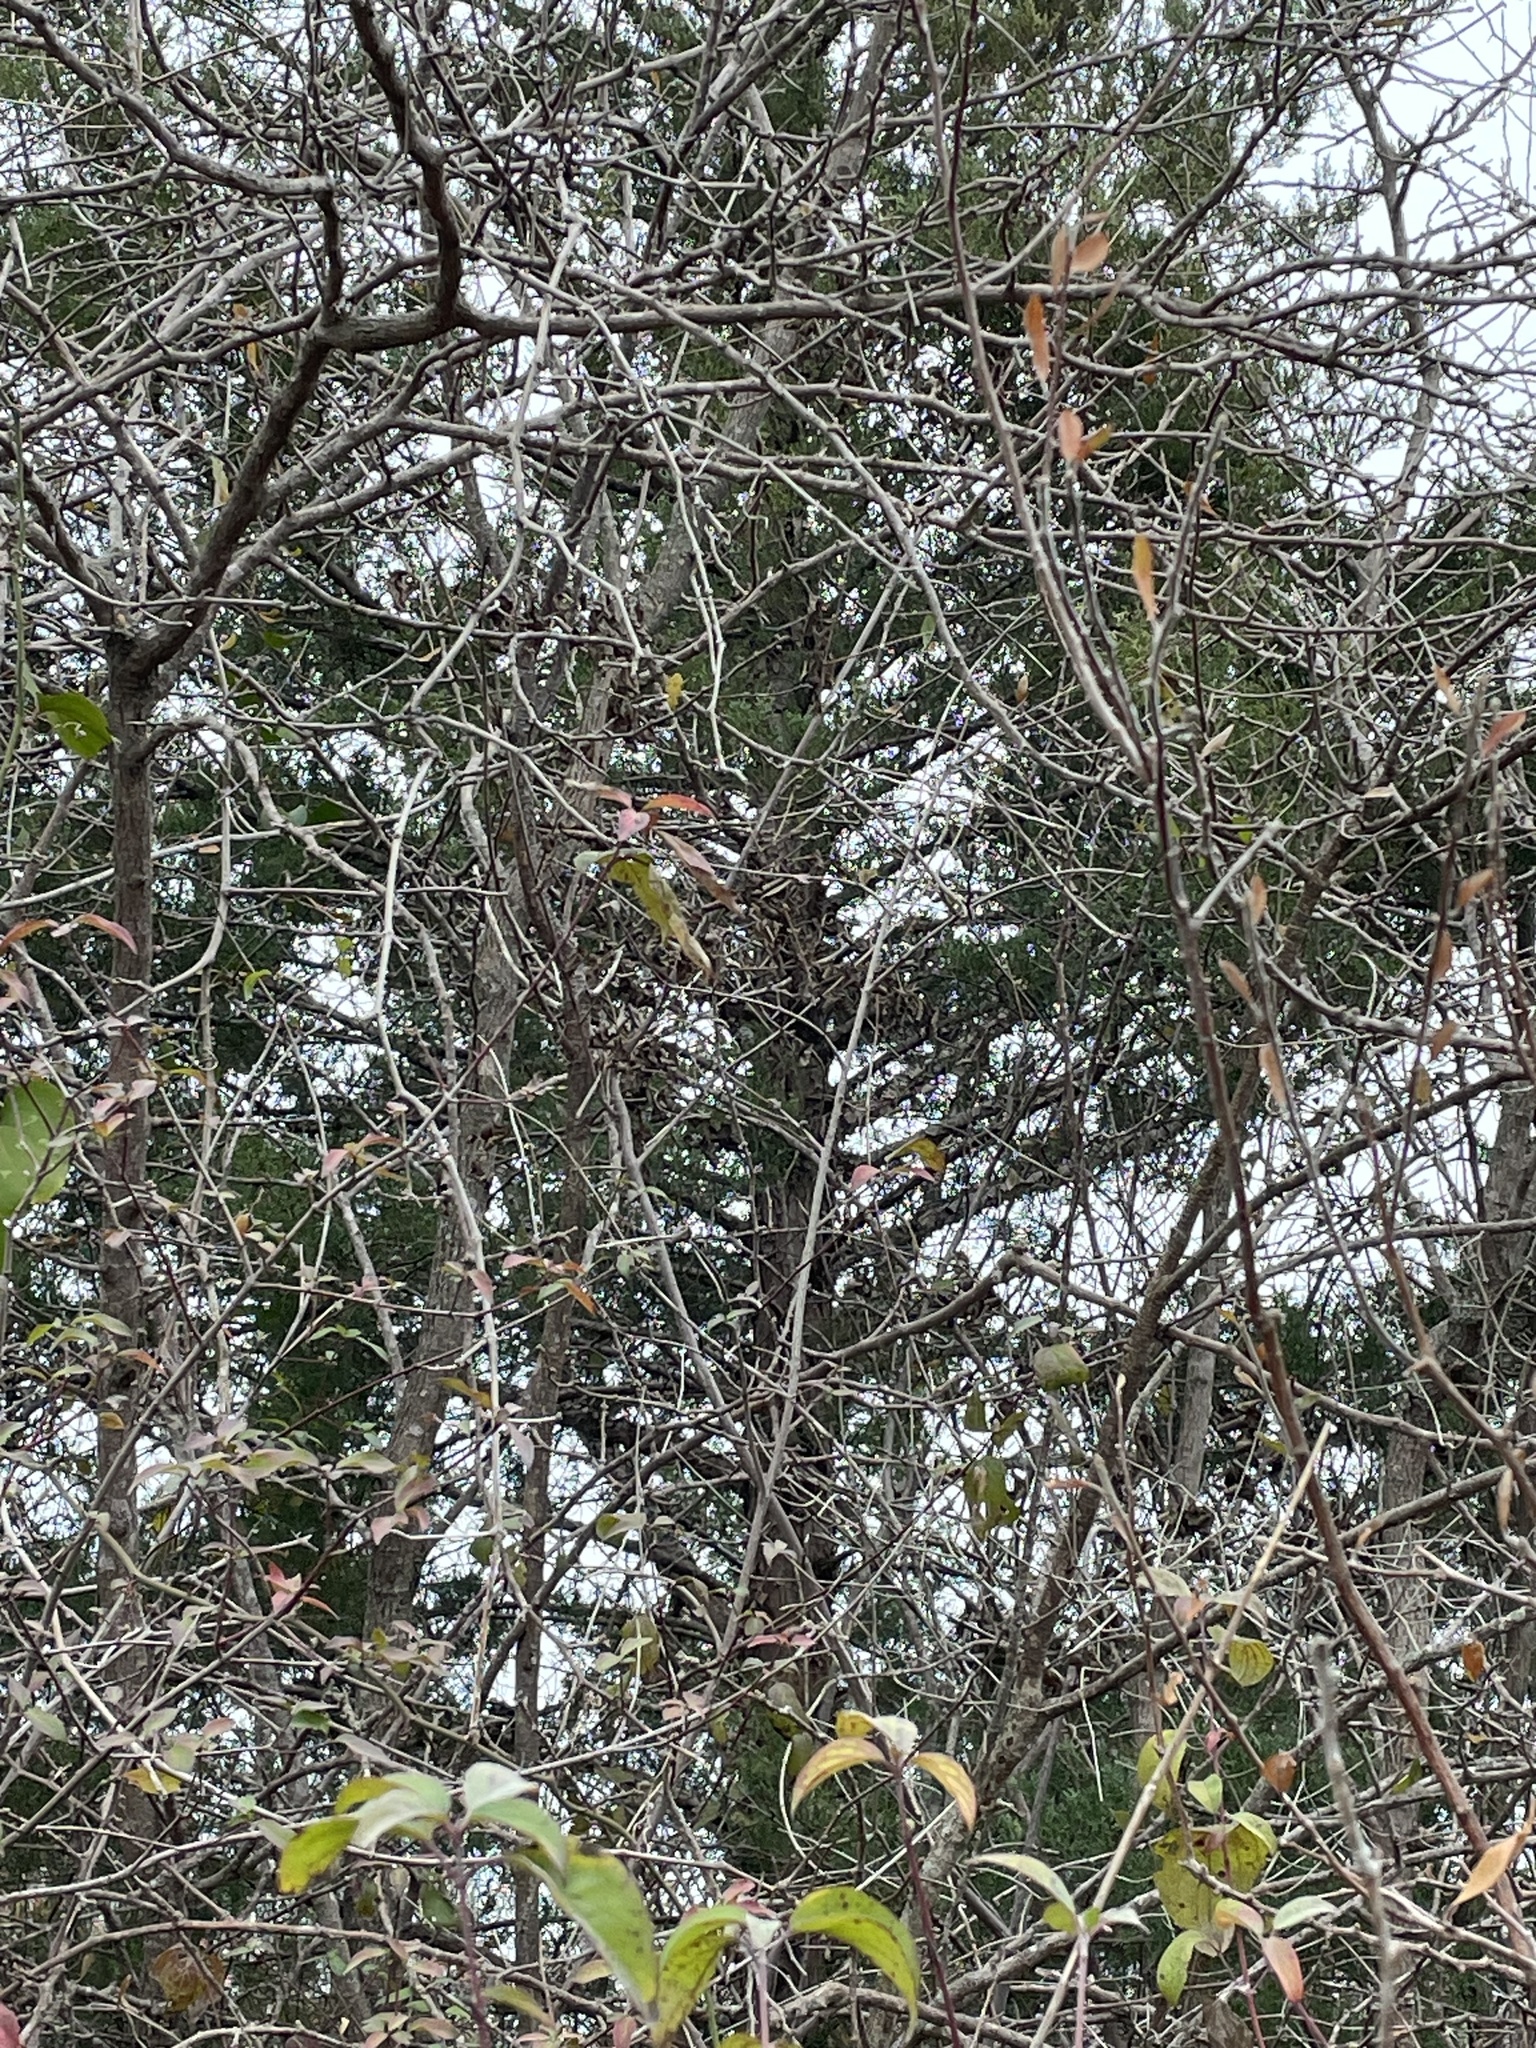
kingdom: Plantae
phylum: Tracheophyta
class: Pinopsida
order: Pinales
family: Cupressaceae
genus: Juniperus
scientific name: Juniperus virginiana
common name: Red juniper
